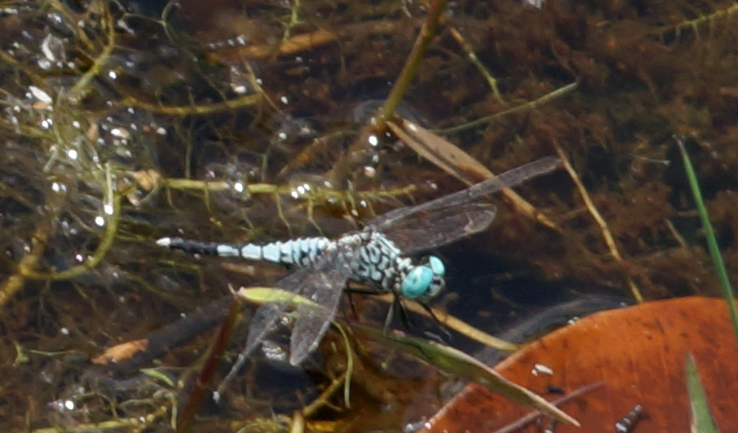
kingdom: Animalia
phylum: Arthropoda
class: Insecta
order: Odonata
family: Libellulidae
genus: Acisoma
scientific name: Acisoma panorpoides
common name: Asian pintail
